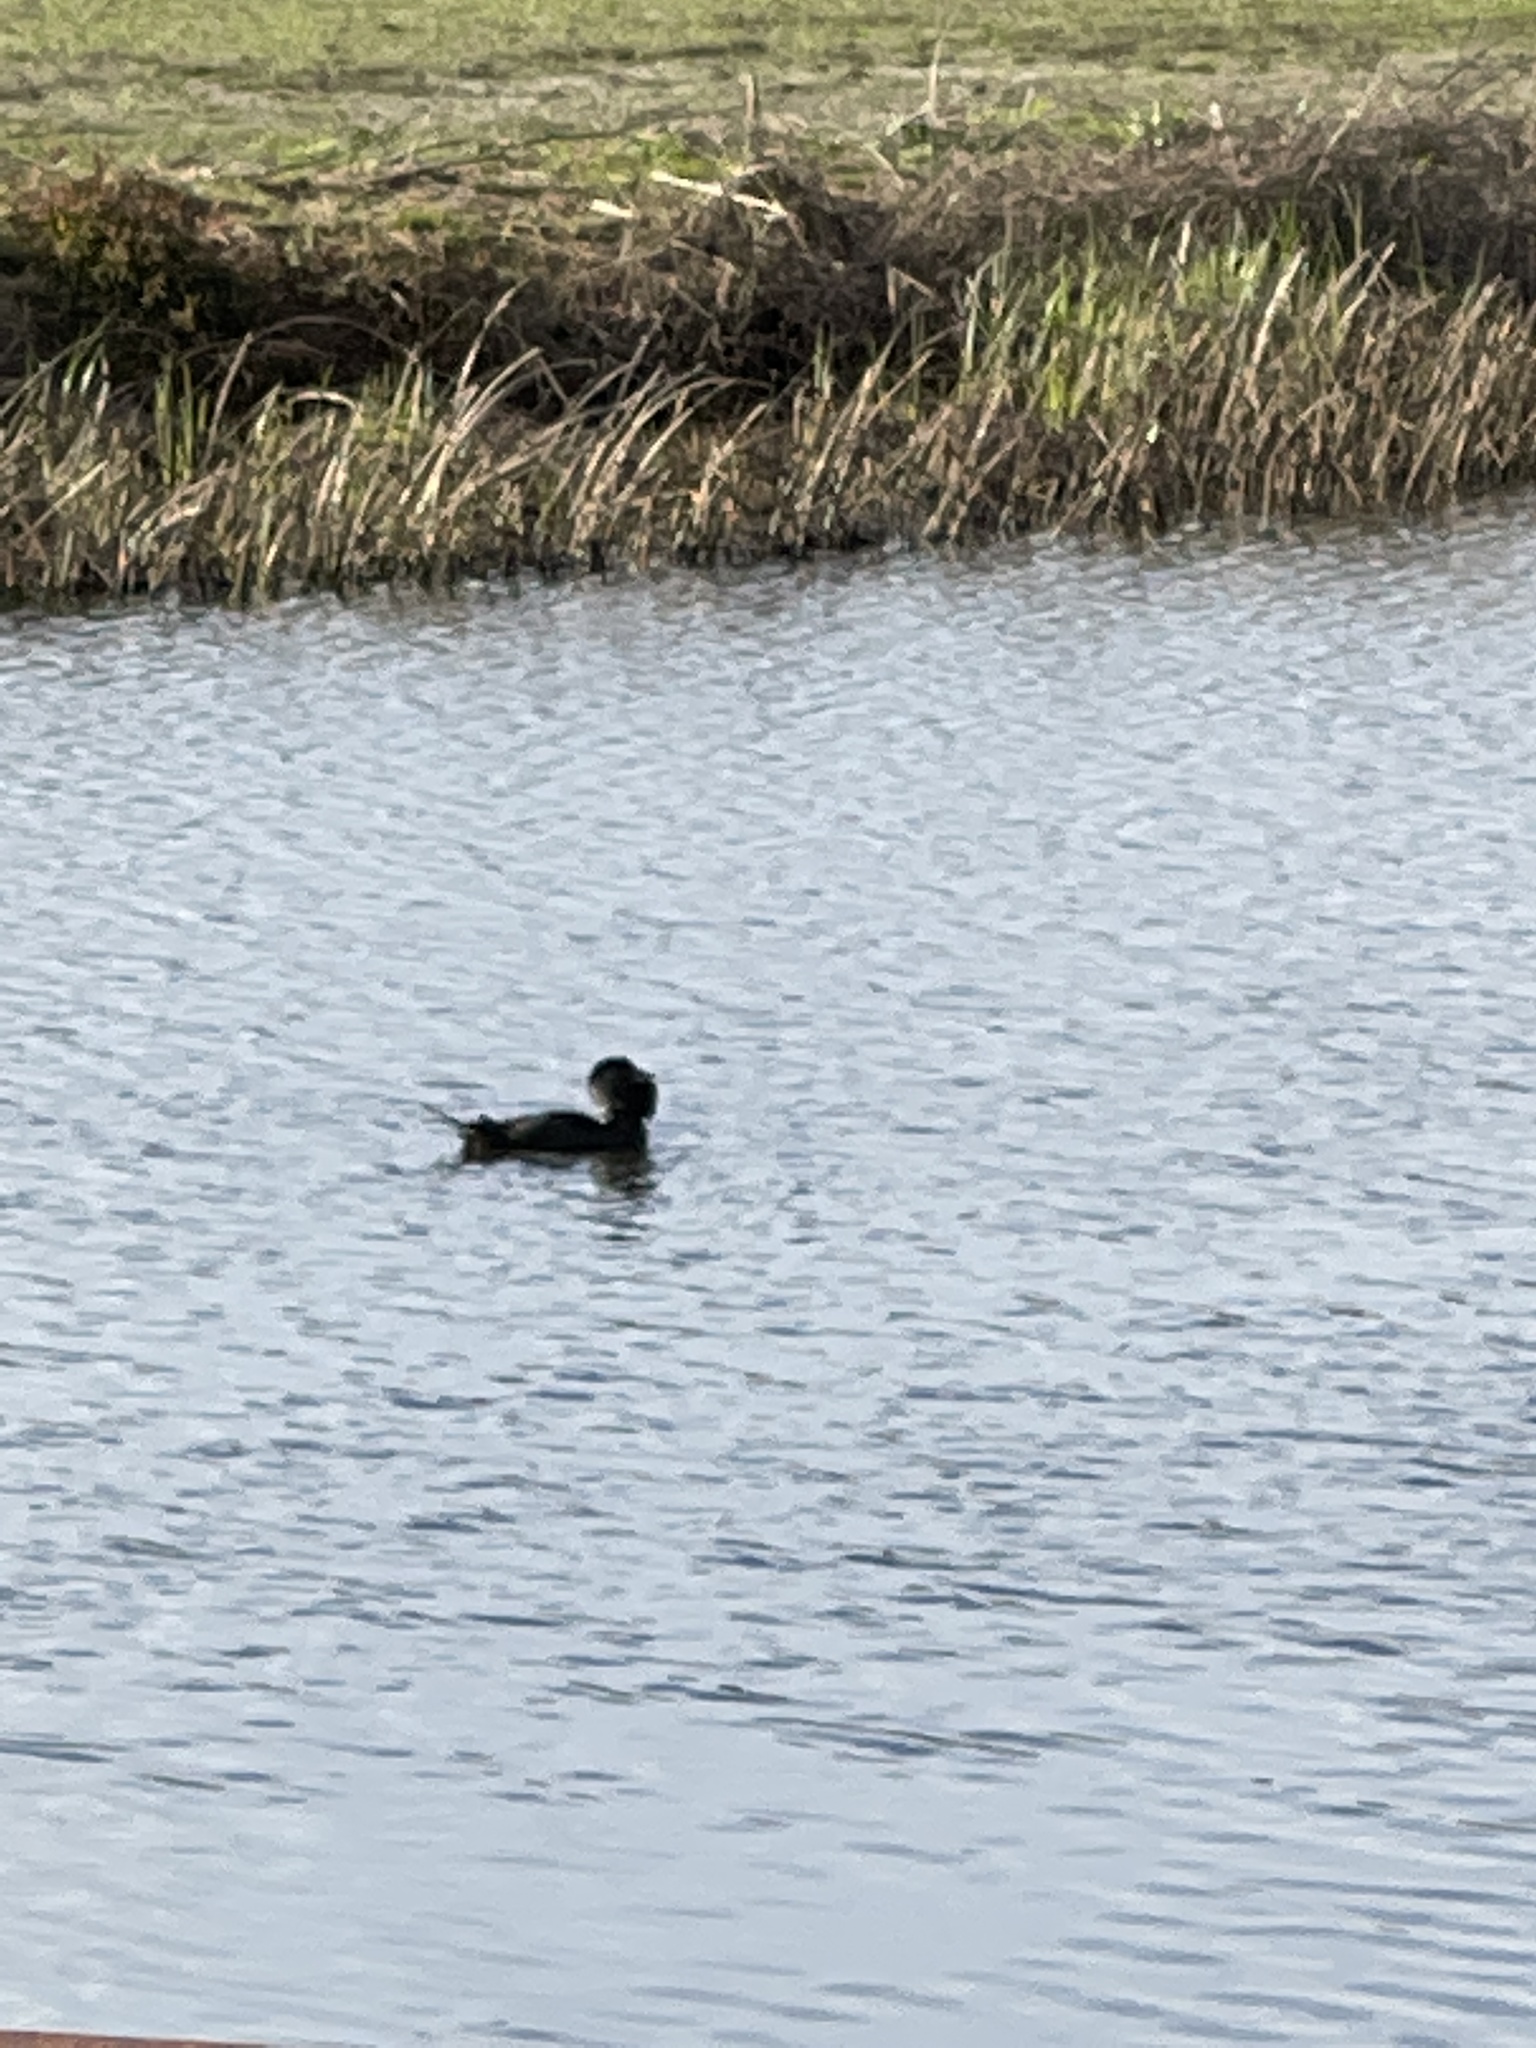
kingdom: Animalia
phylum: Chordata
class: Aves
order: Anseriformes
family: Anatidae
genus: Biziura
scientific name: Biziura lobata
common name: Musk duck
